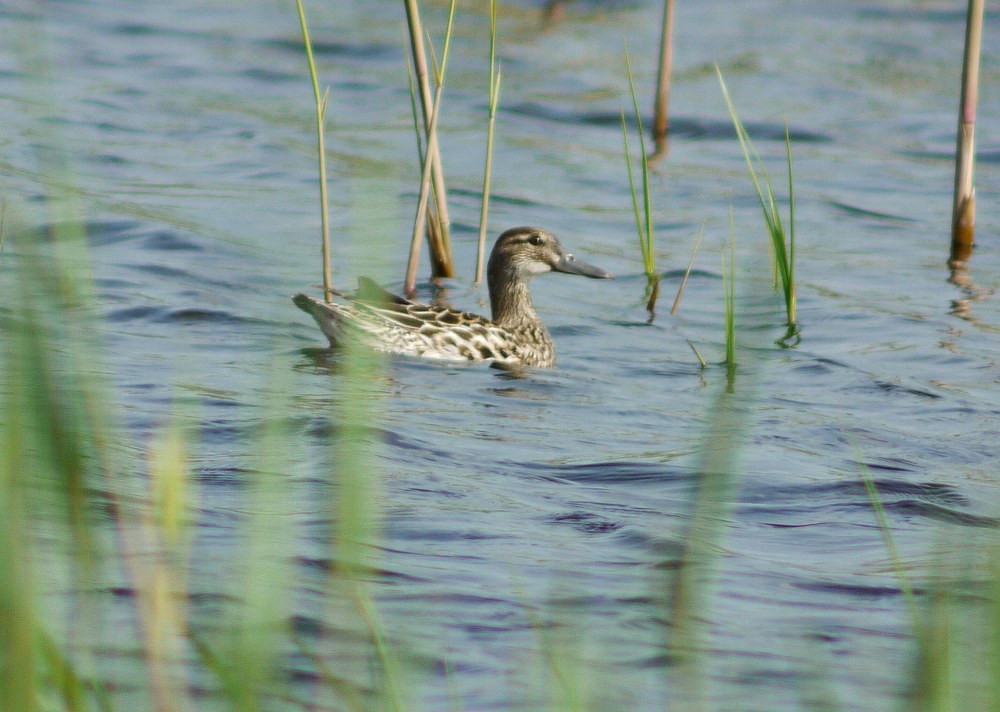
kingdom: Animalia
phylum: Chordata
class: Aves
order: Anseriformes
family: Anatidae
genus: Spatula
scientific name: Spatula querquedula
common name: Garganey
